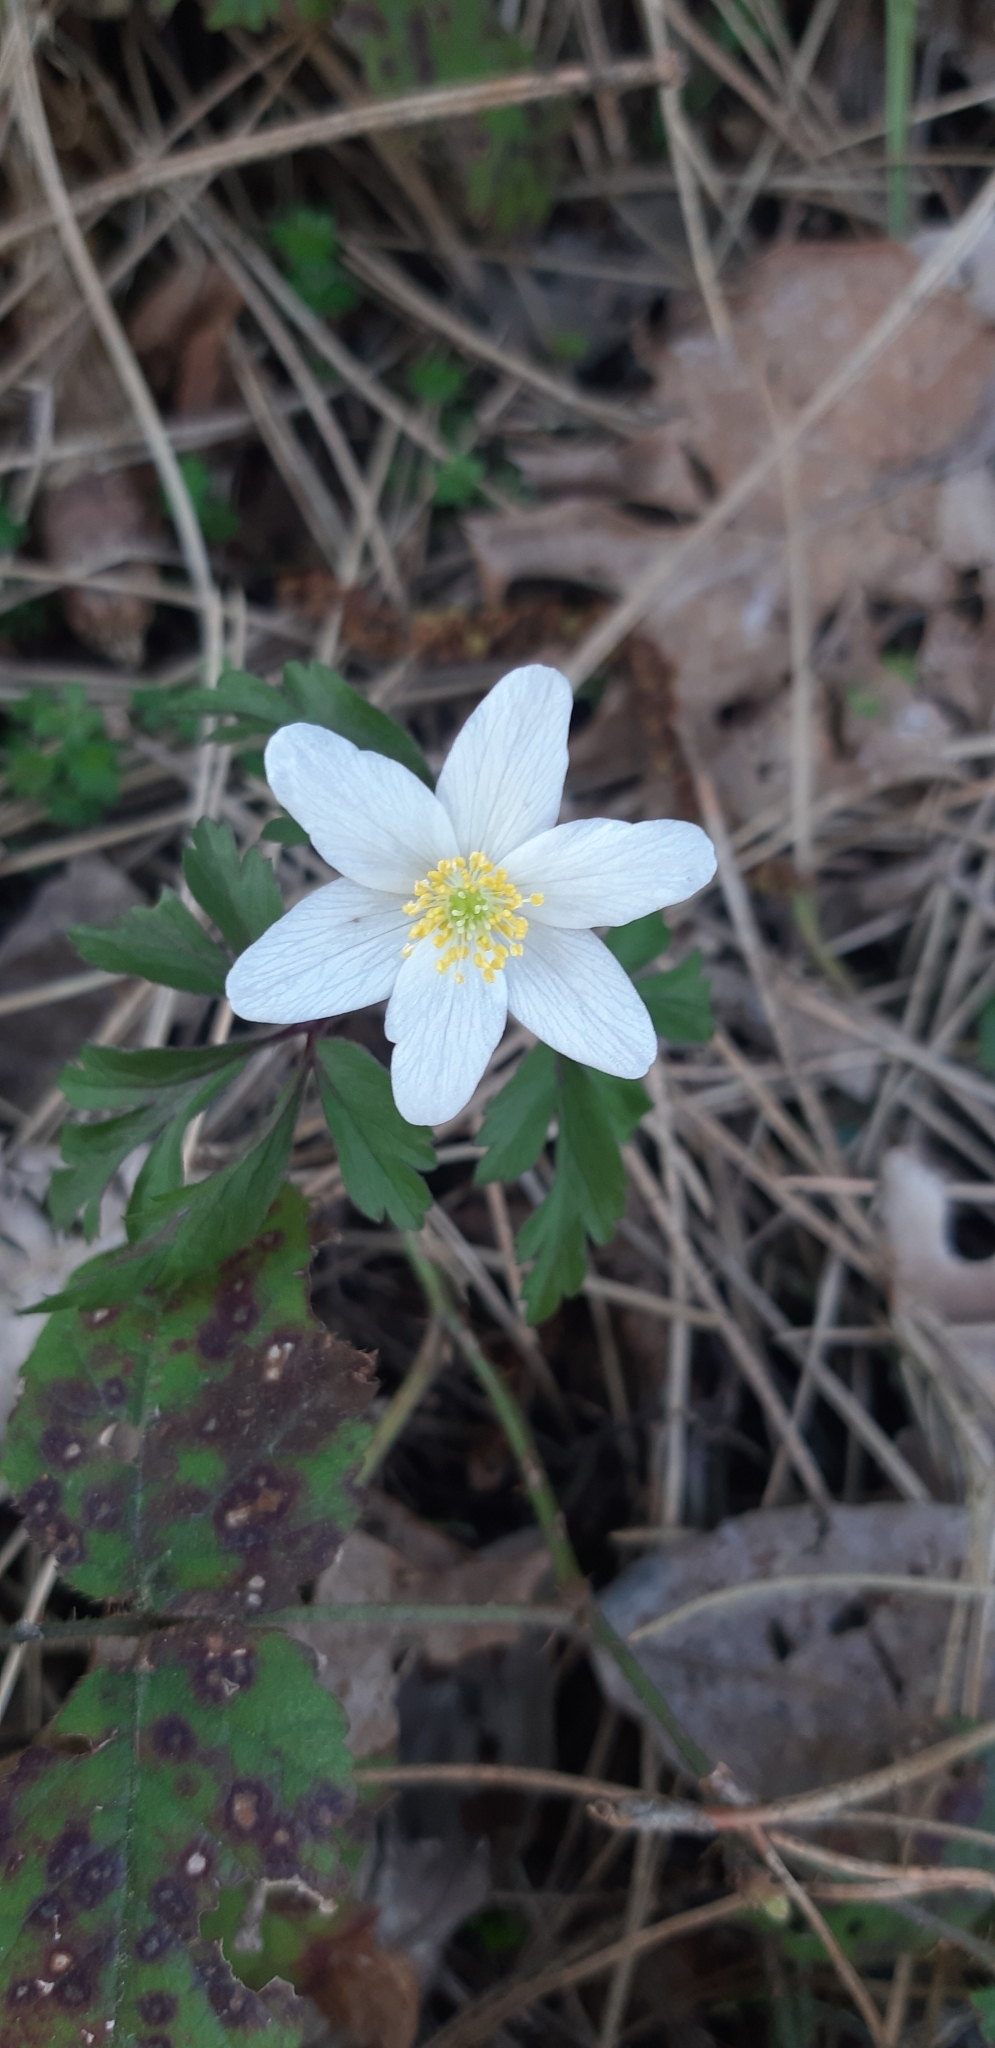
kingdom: Plantae
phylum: Tracheophyta
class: Magnoliopsida
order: Ranunculales
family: Ranunculaceae
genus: Anemone
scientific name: Anemone nemorosa
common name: Wood anemone
